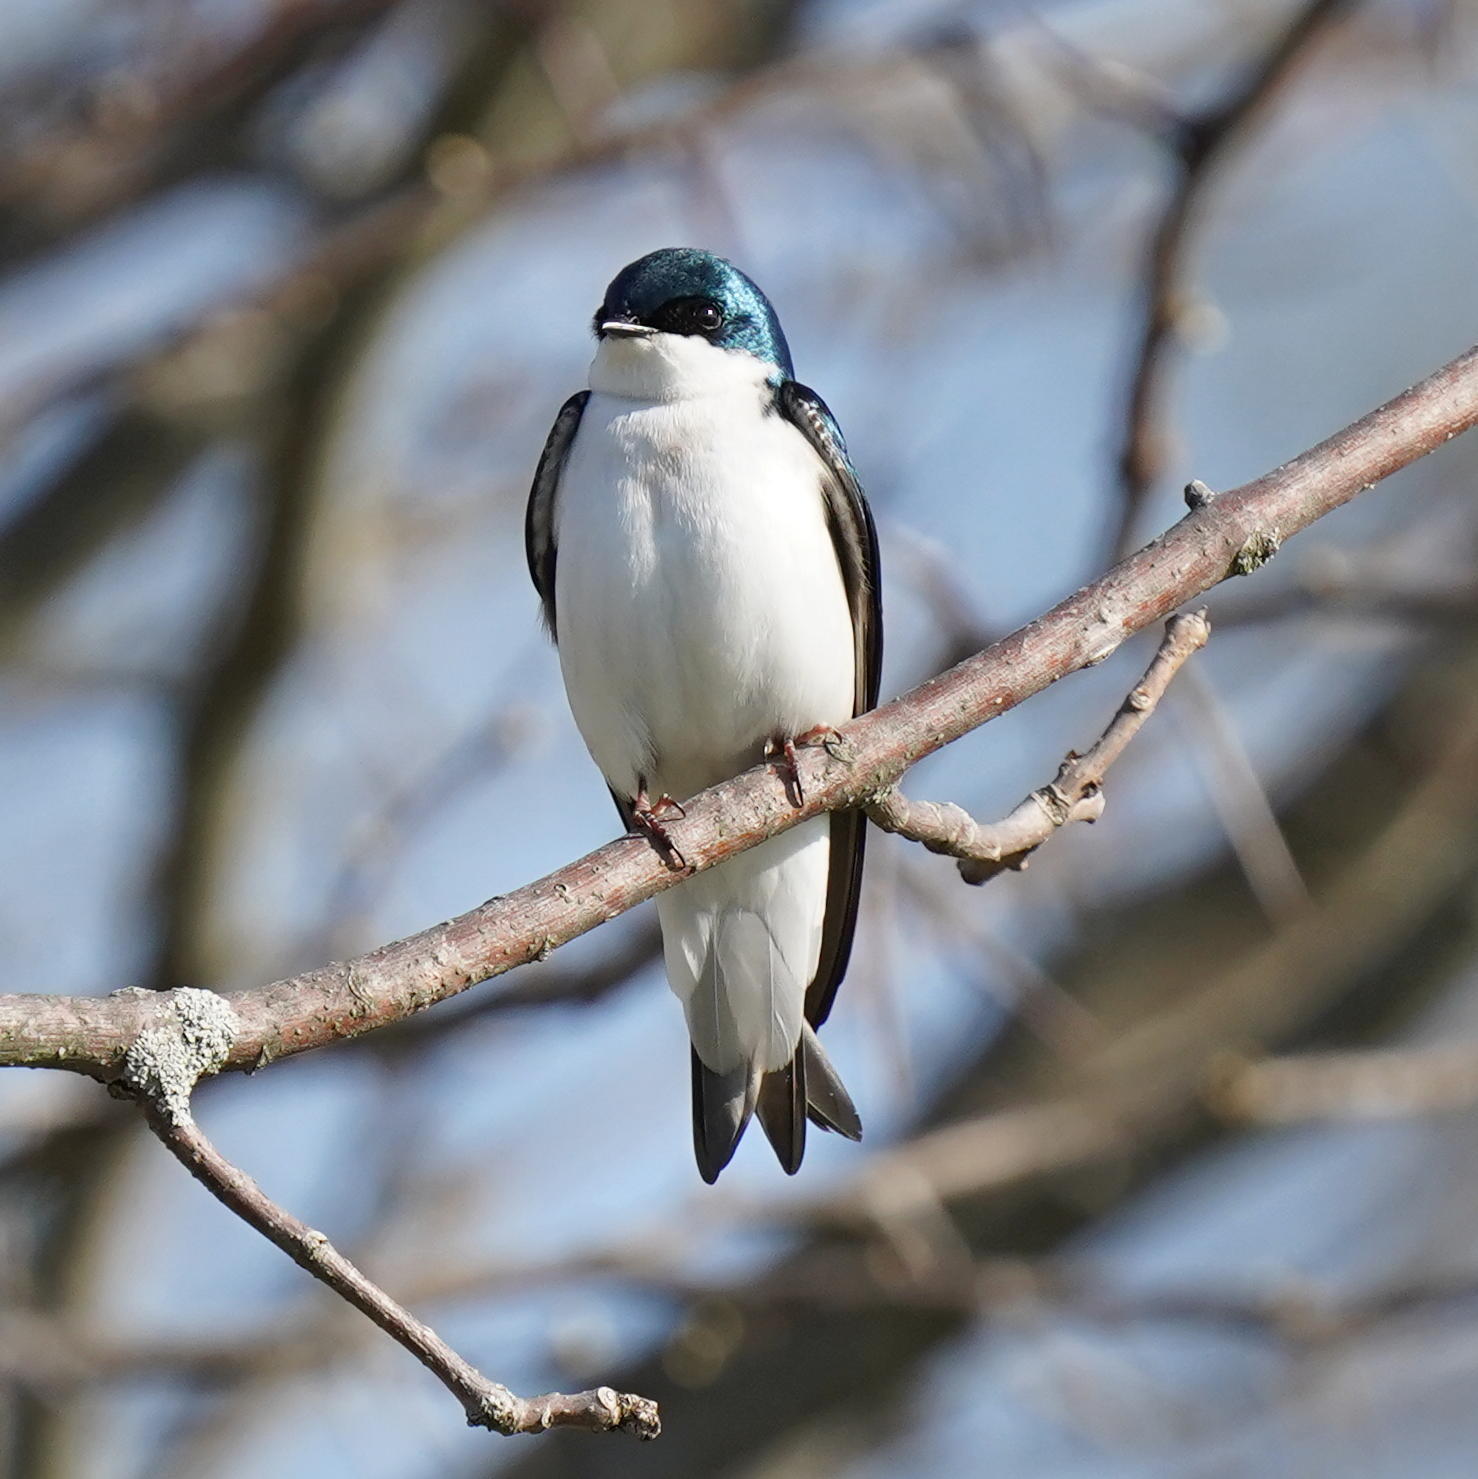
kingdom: Animalia
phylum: Chordata
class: Aves
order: Passeriformes
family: Hirundinidae
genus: Tachycineta
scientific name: Tachycineta bicolor
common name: Tree swallow
